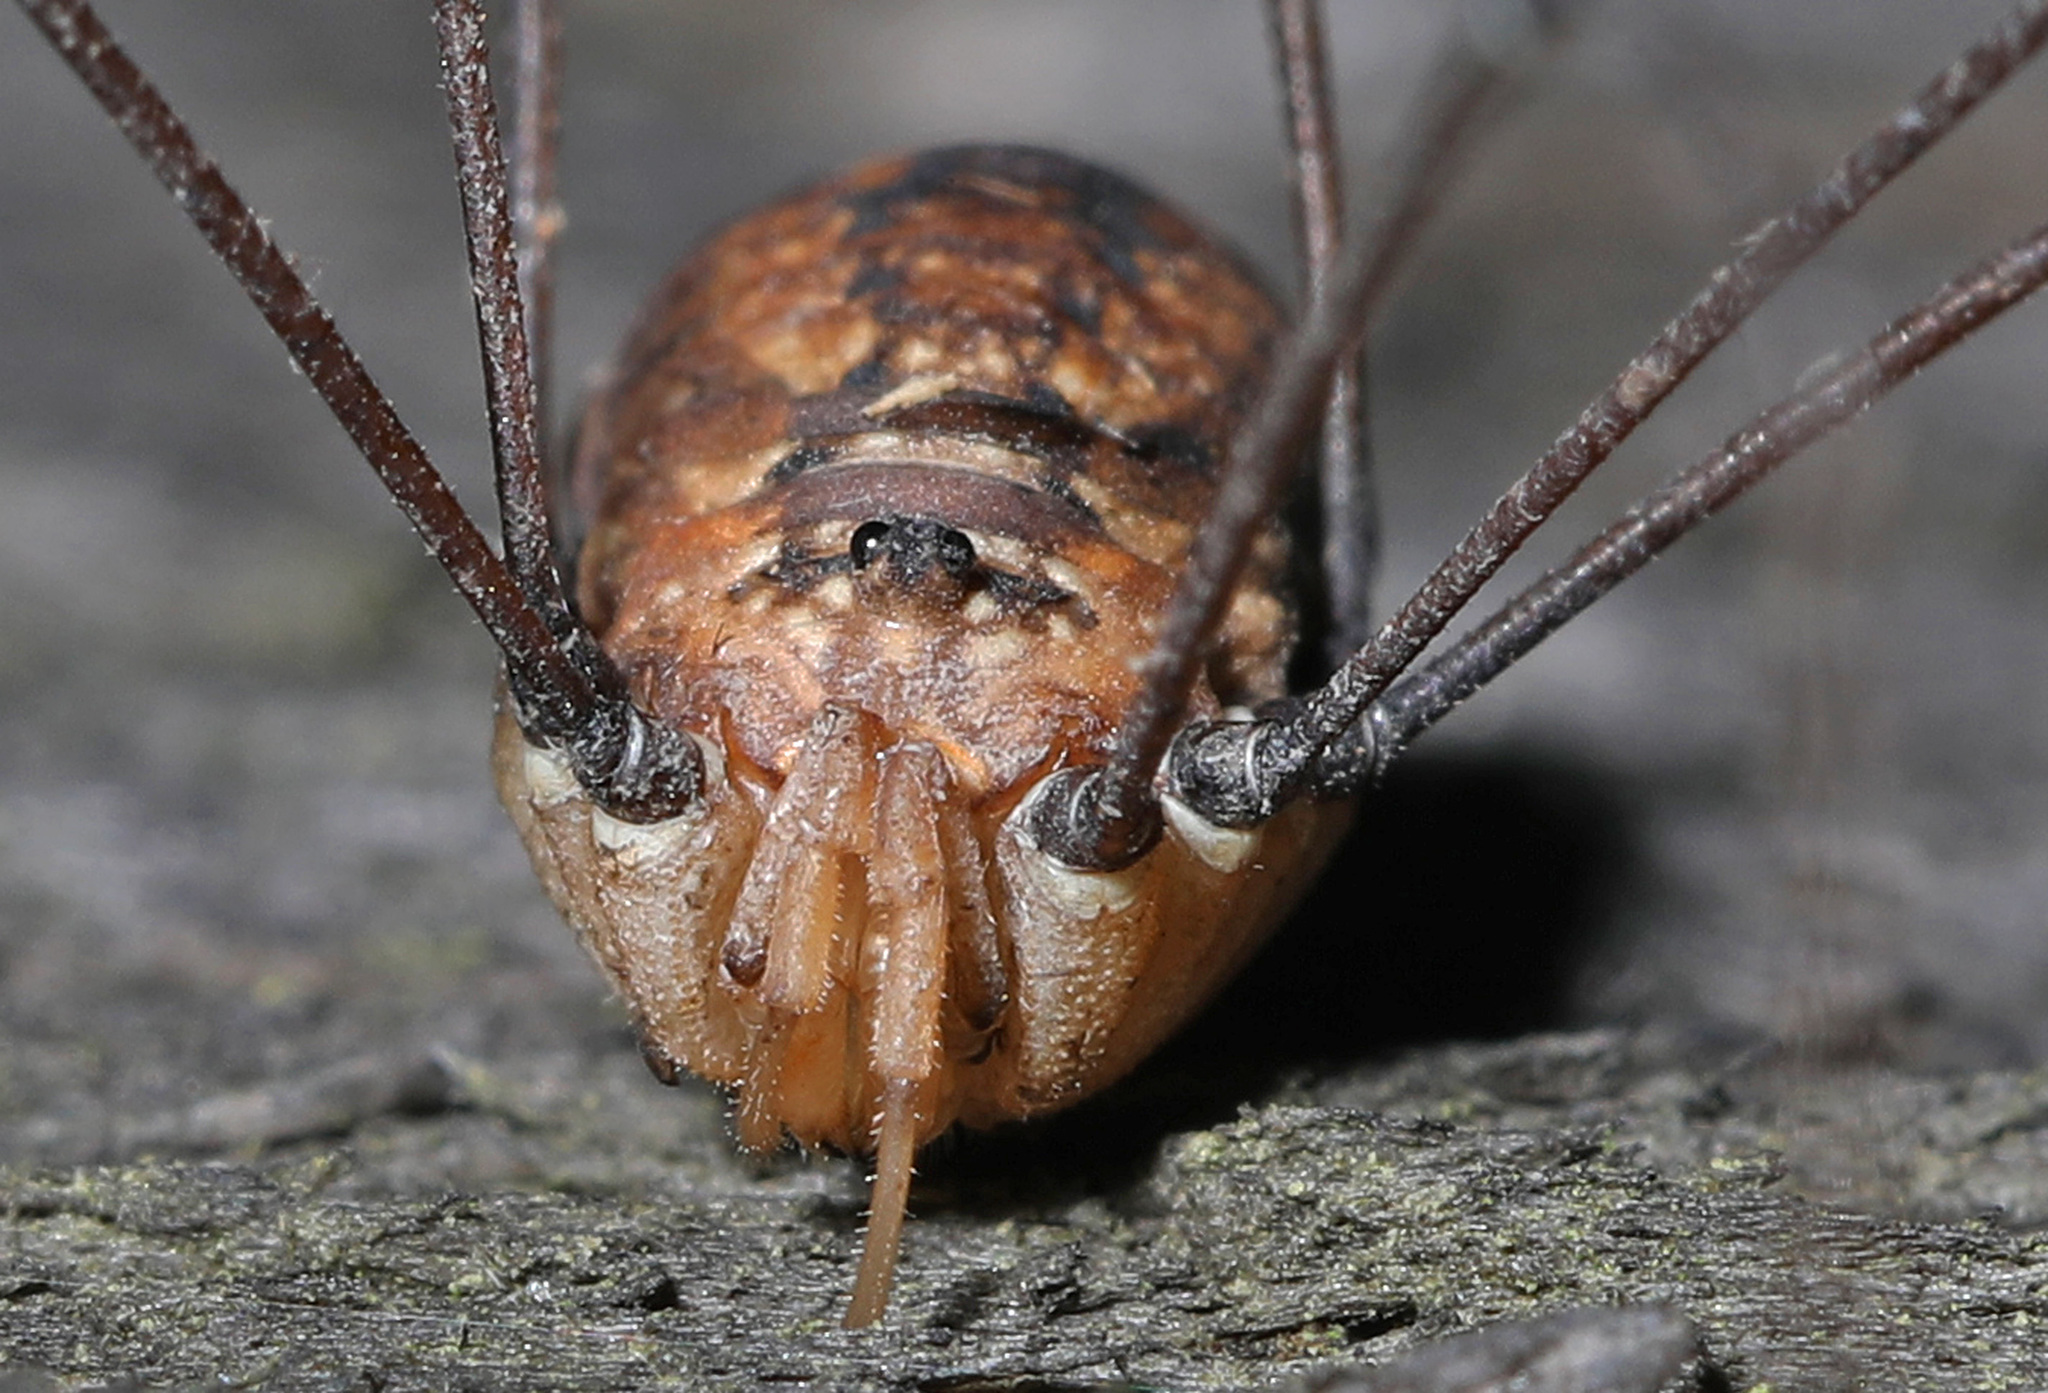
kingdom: Animalia
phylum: Arthropoda
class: Arachnida
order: Opiliones
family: Sclerosomatidae
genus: Leiobunum
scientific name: Leiobunum uxorium
